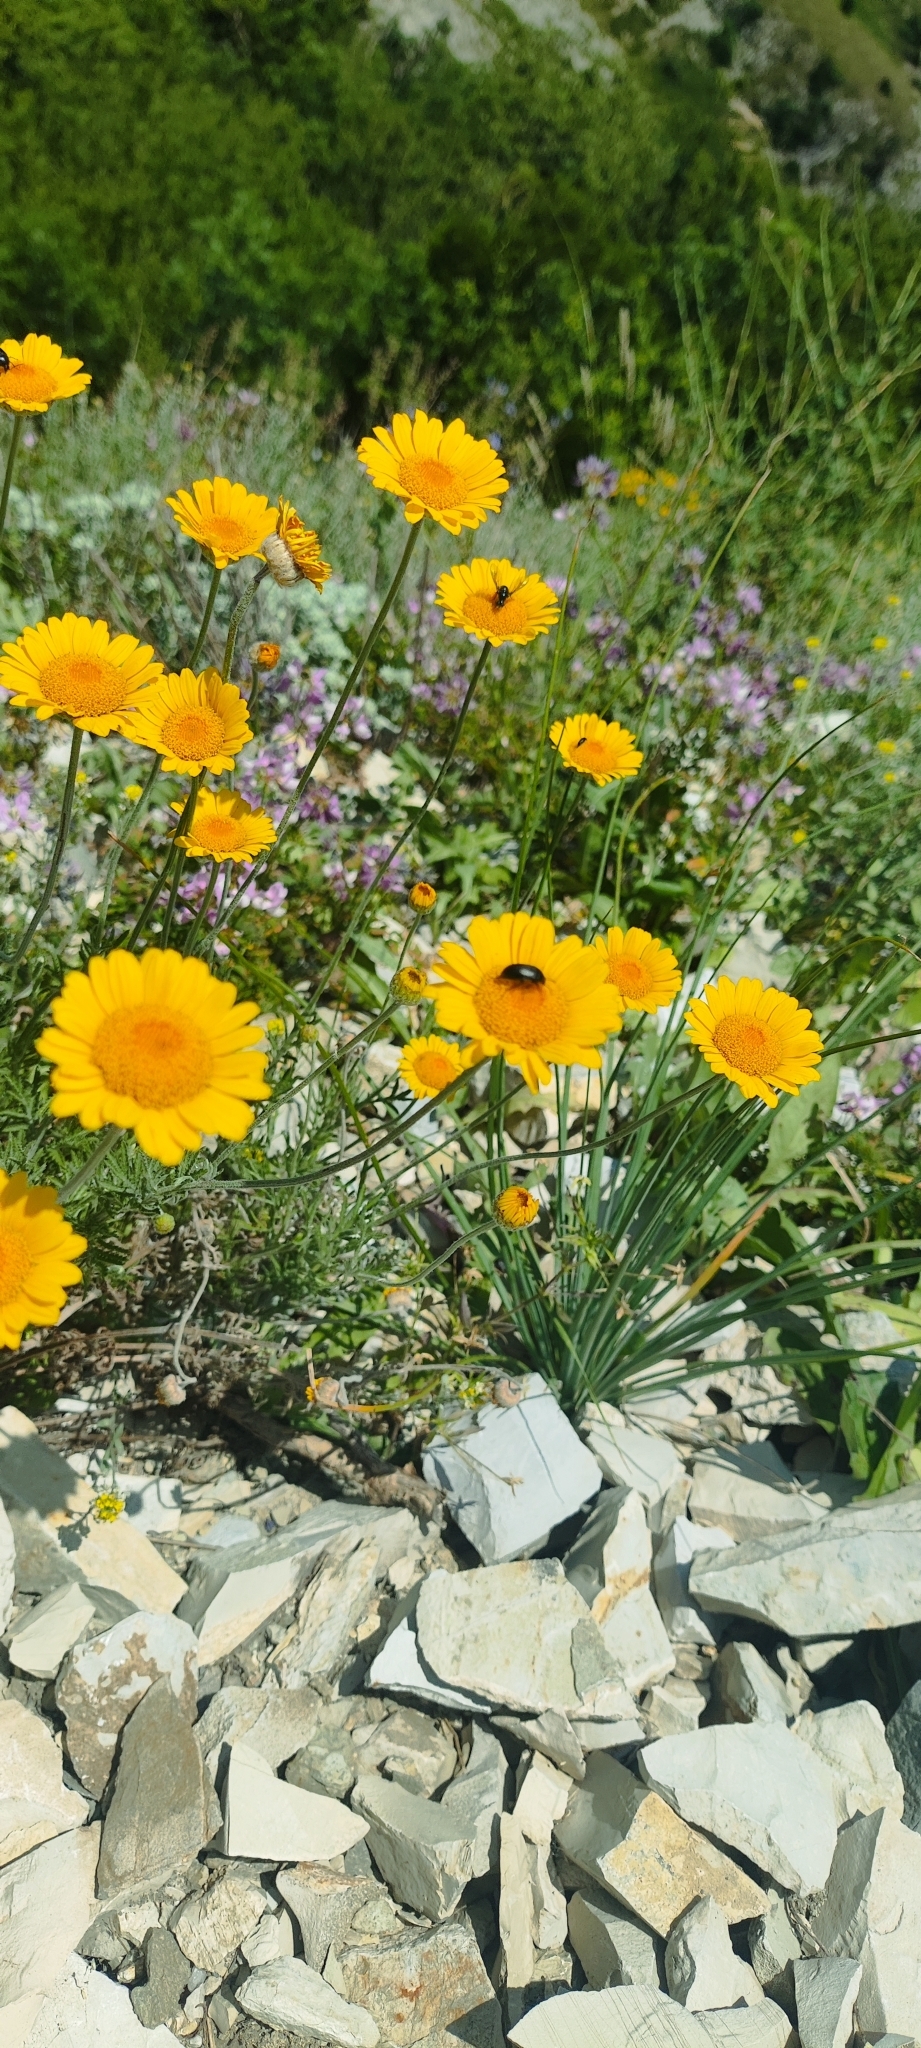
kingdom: Plantae
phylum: Tracheophyta
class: Magnoliopsida
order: Asterales
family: Asteraceae
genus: Cota
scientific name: Cota tinctoria
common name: Golden chamomile
